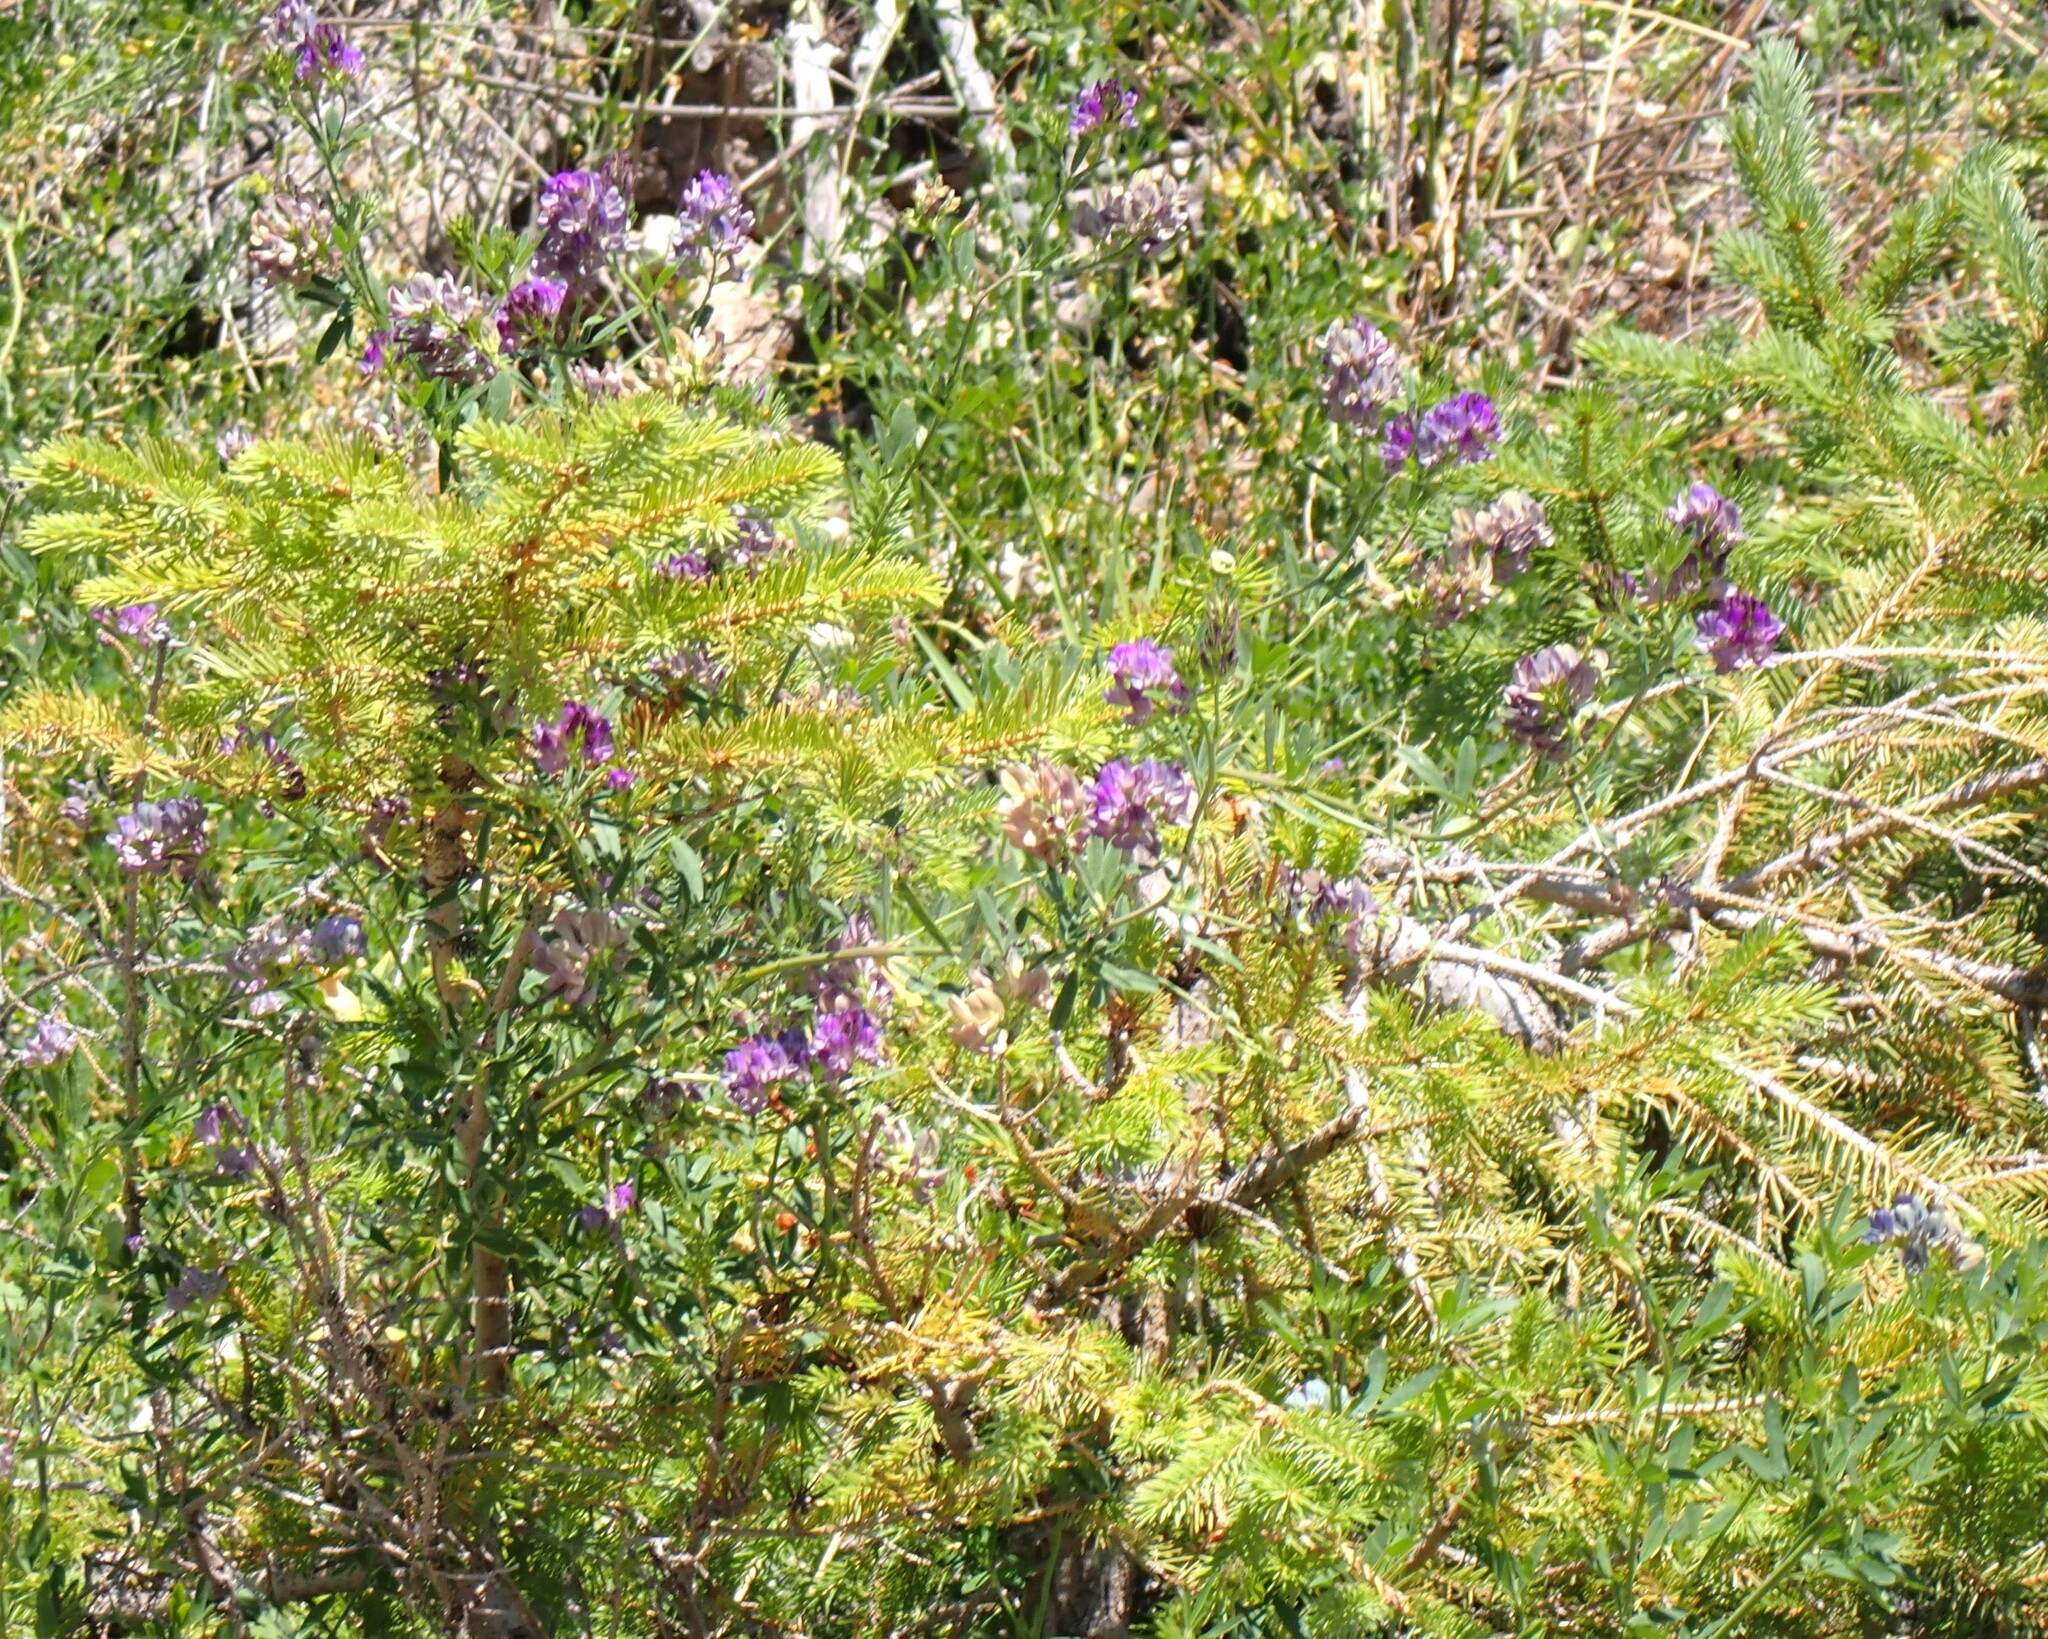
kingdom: Plantae
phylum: Tracheophyta
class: Magnoliopsida
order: Fabales
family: Fabaceae
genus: Medicago
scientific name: Medicago sativa
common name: Alfalfa
